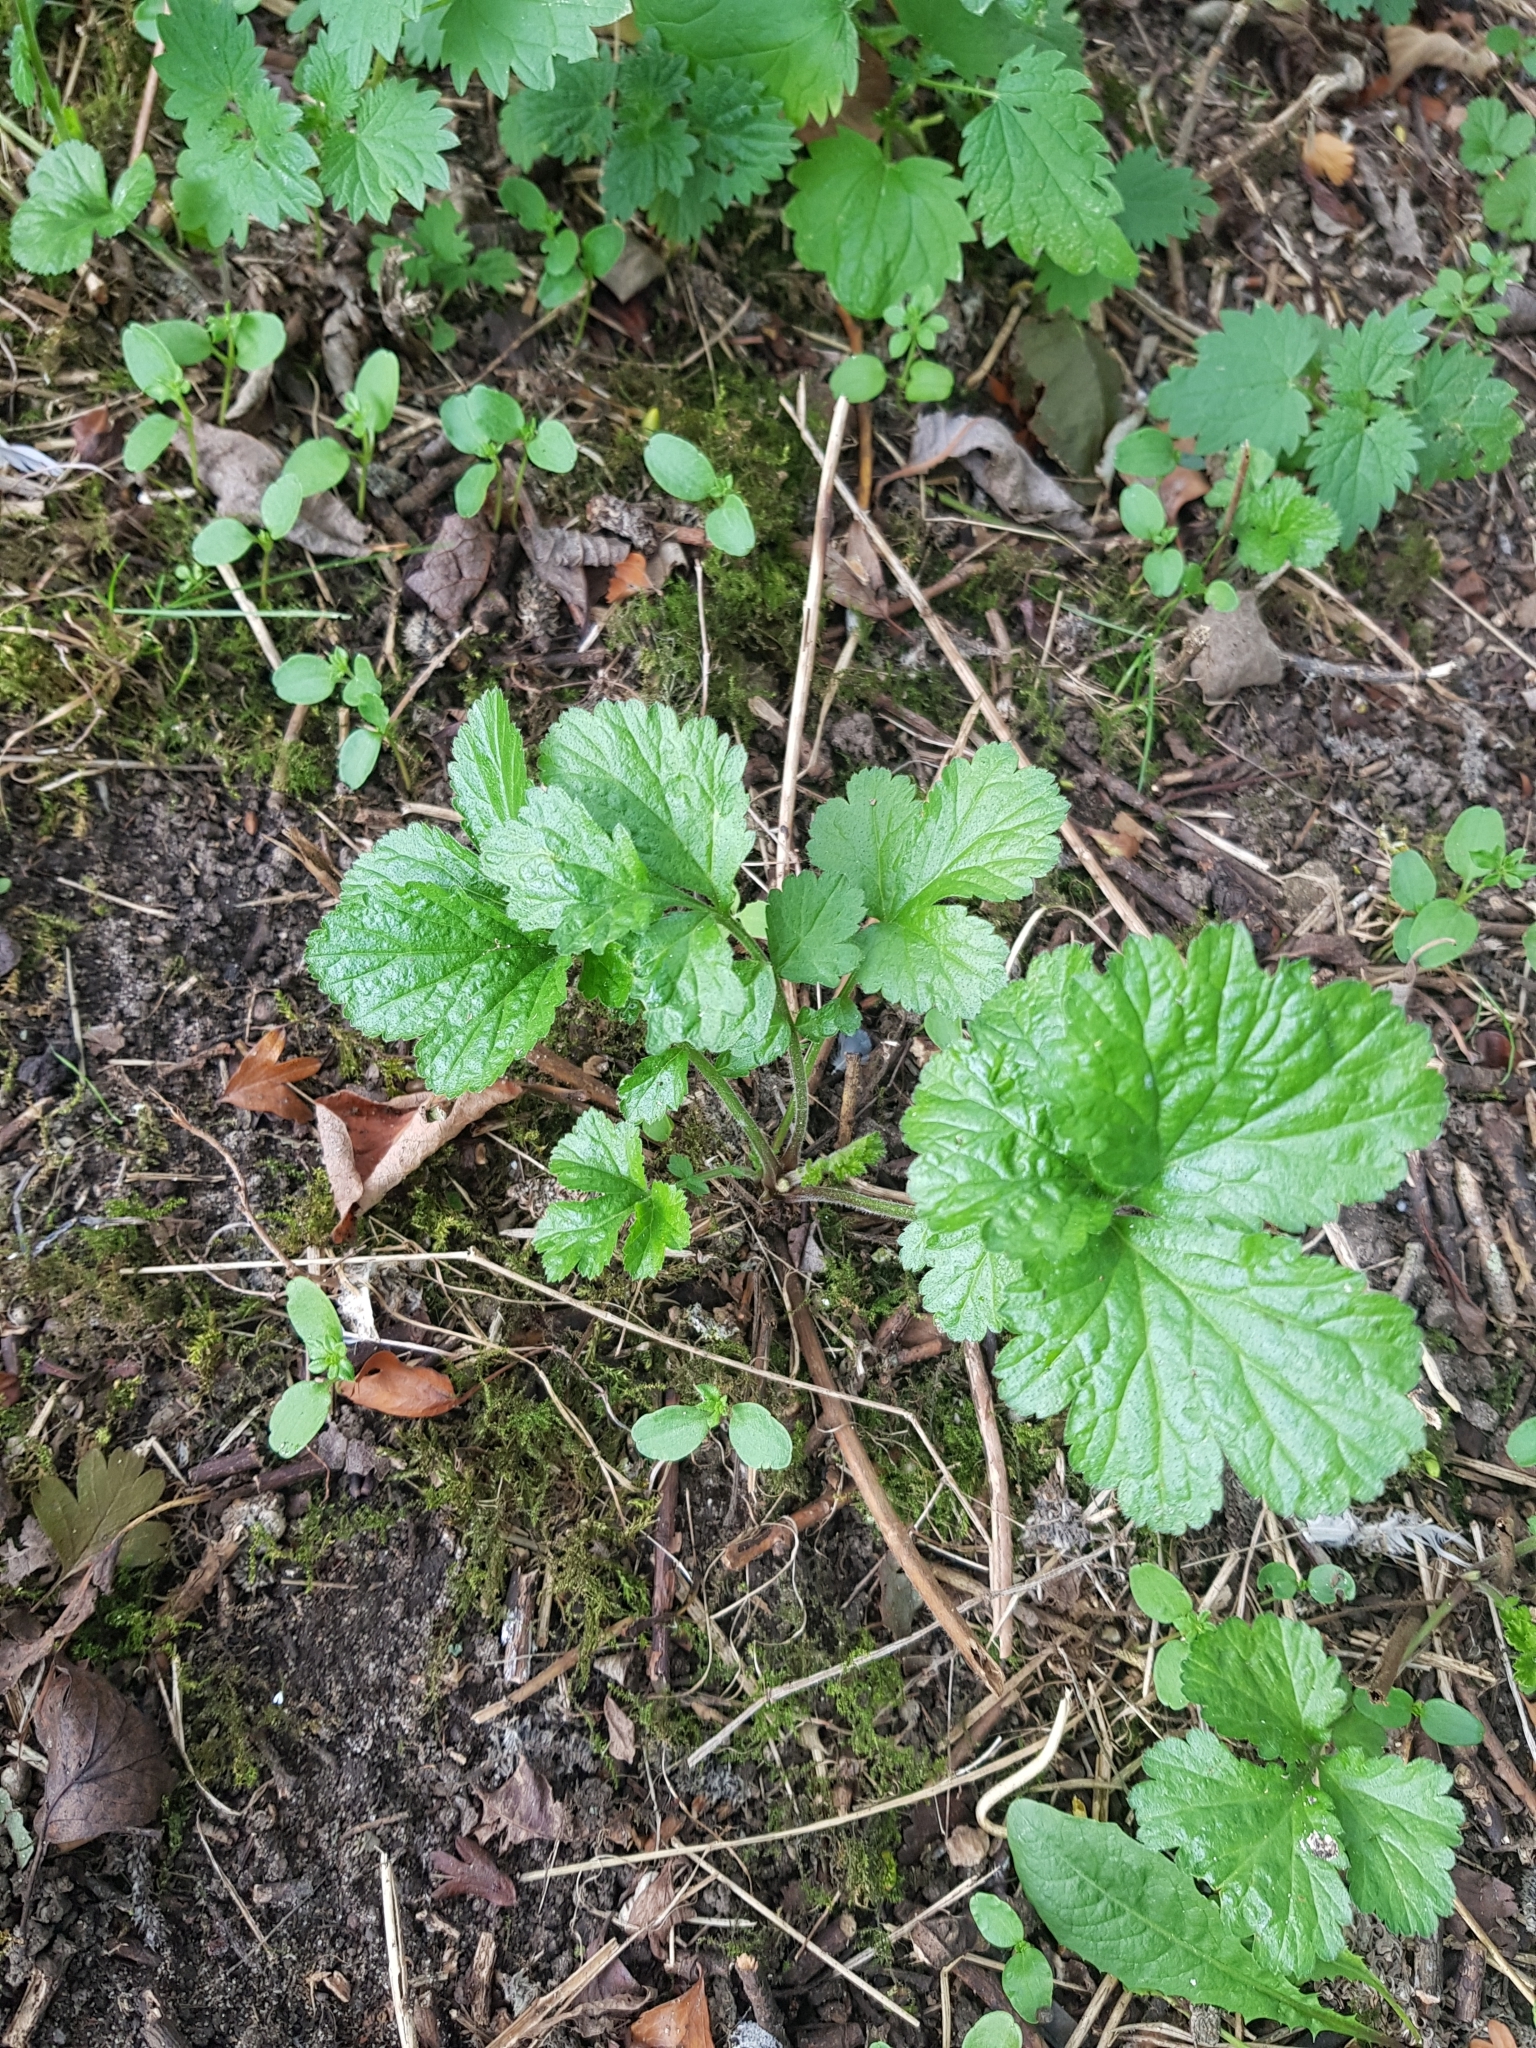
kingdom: Plantae
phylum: Tracheophyta
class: Magnoliopsida
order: Rosales
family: Rosaceae
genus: Geum
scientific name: Geum urbanum
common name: Wood avens
